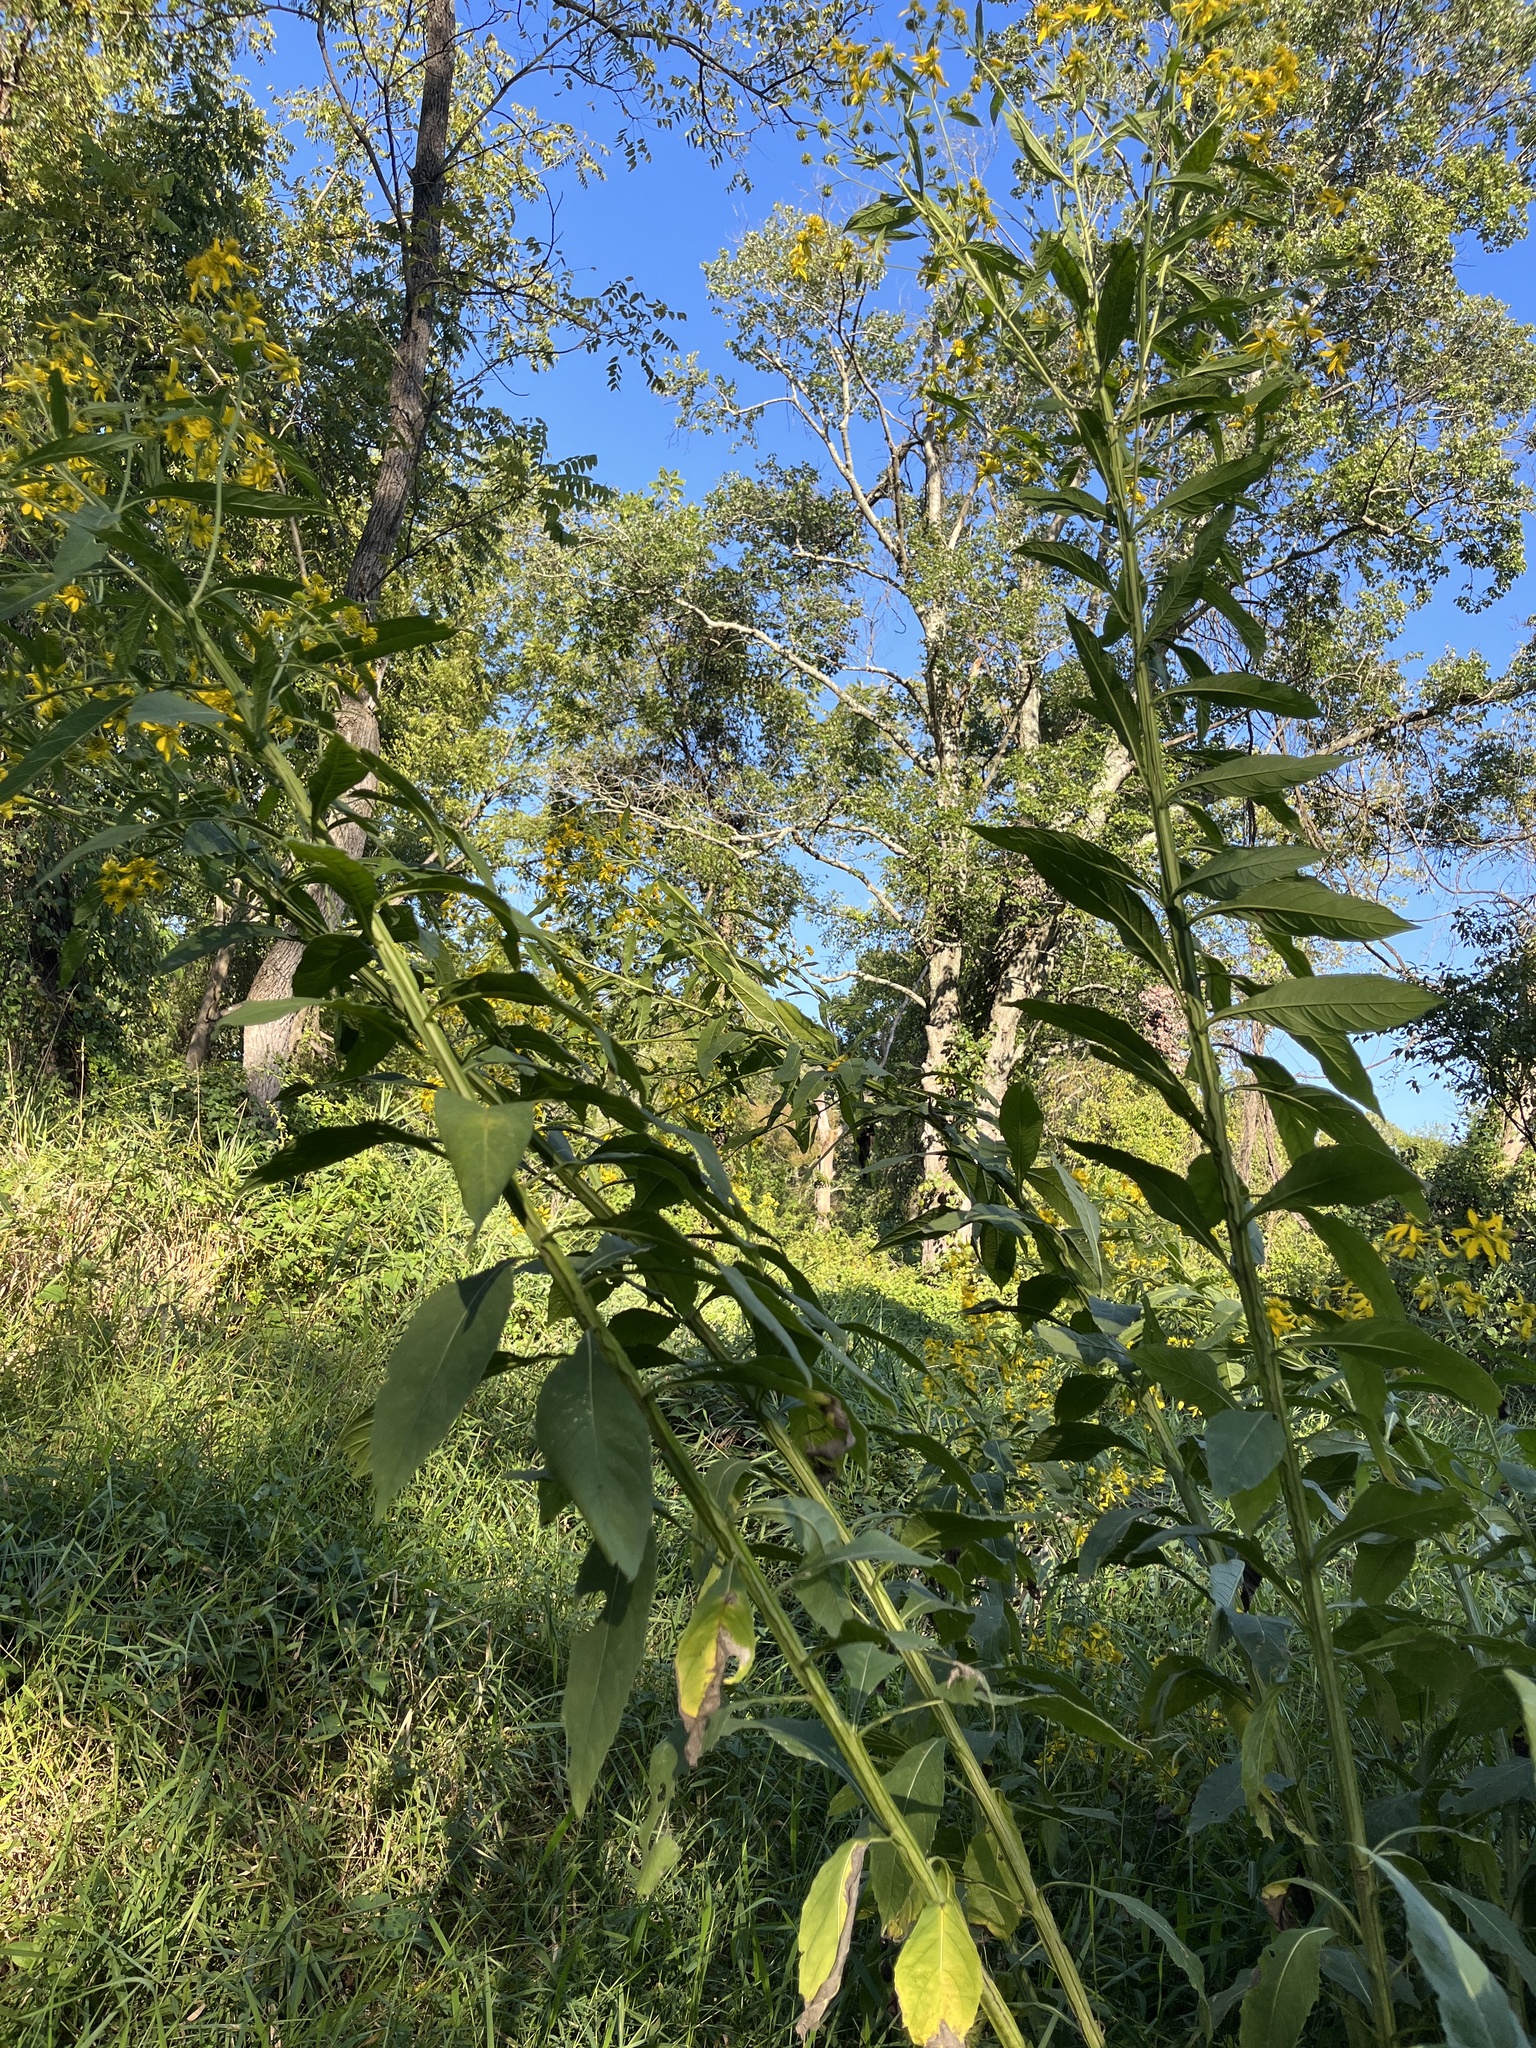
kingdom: Plantae
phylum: Tracheophyta
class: Magnoliopsida
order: Asterales
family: Asteraceae
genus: Verbesina
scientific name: Verbesina alternifolia
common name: Wingstem
